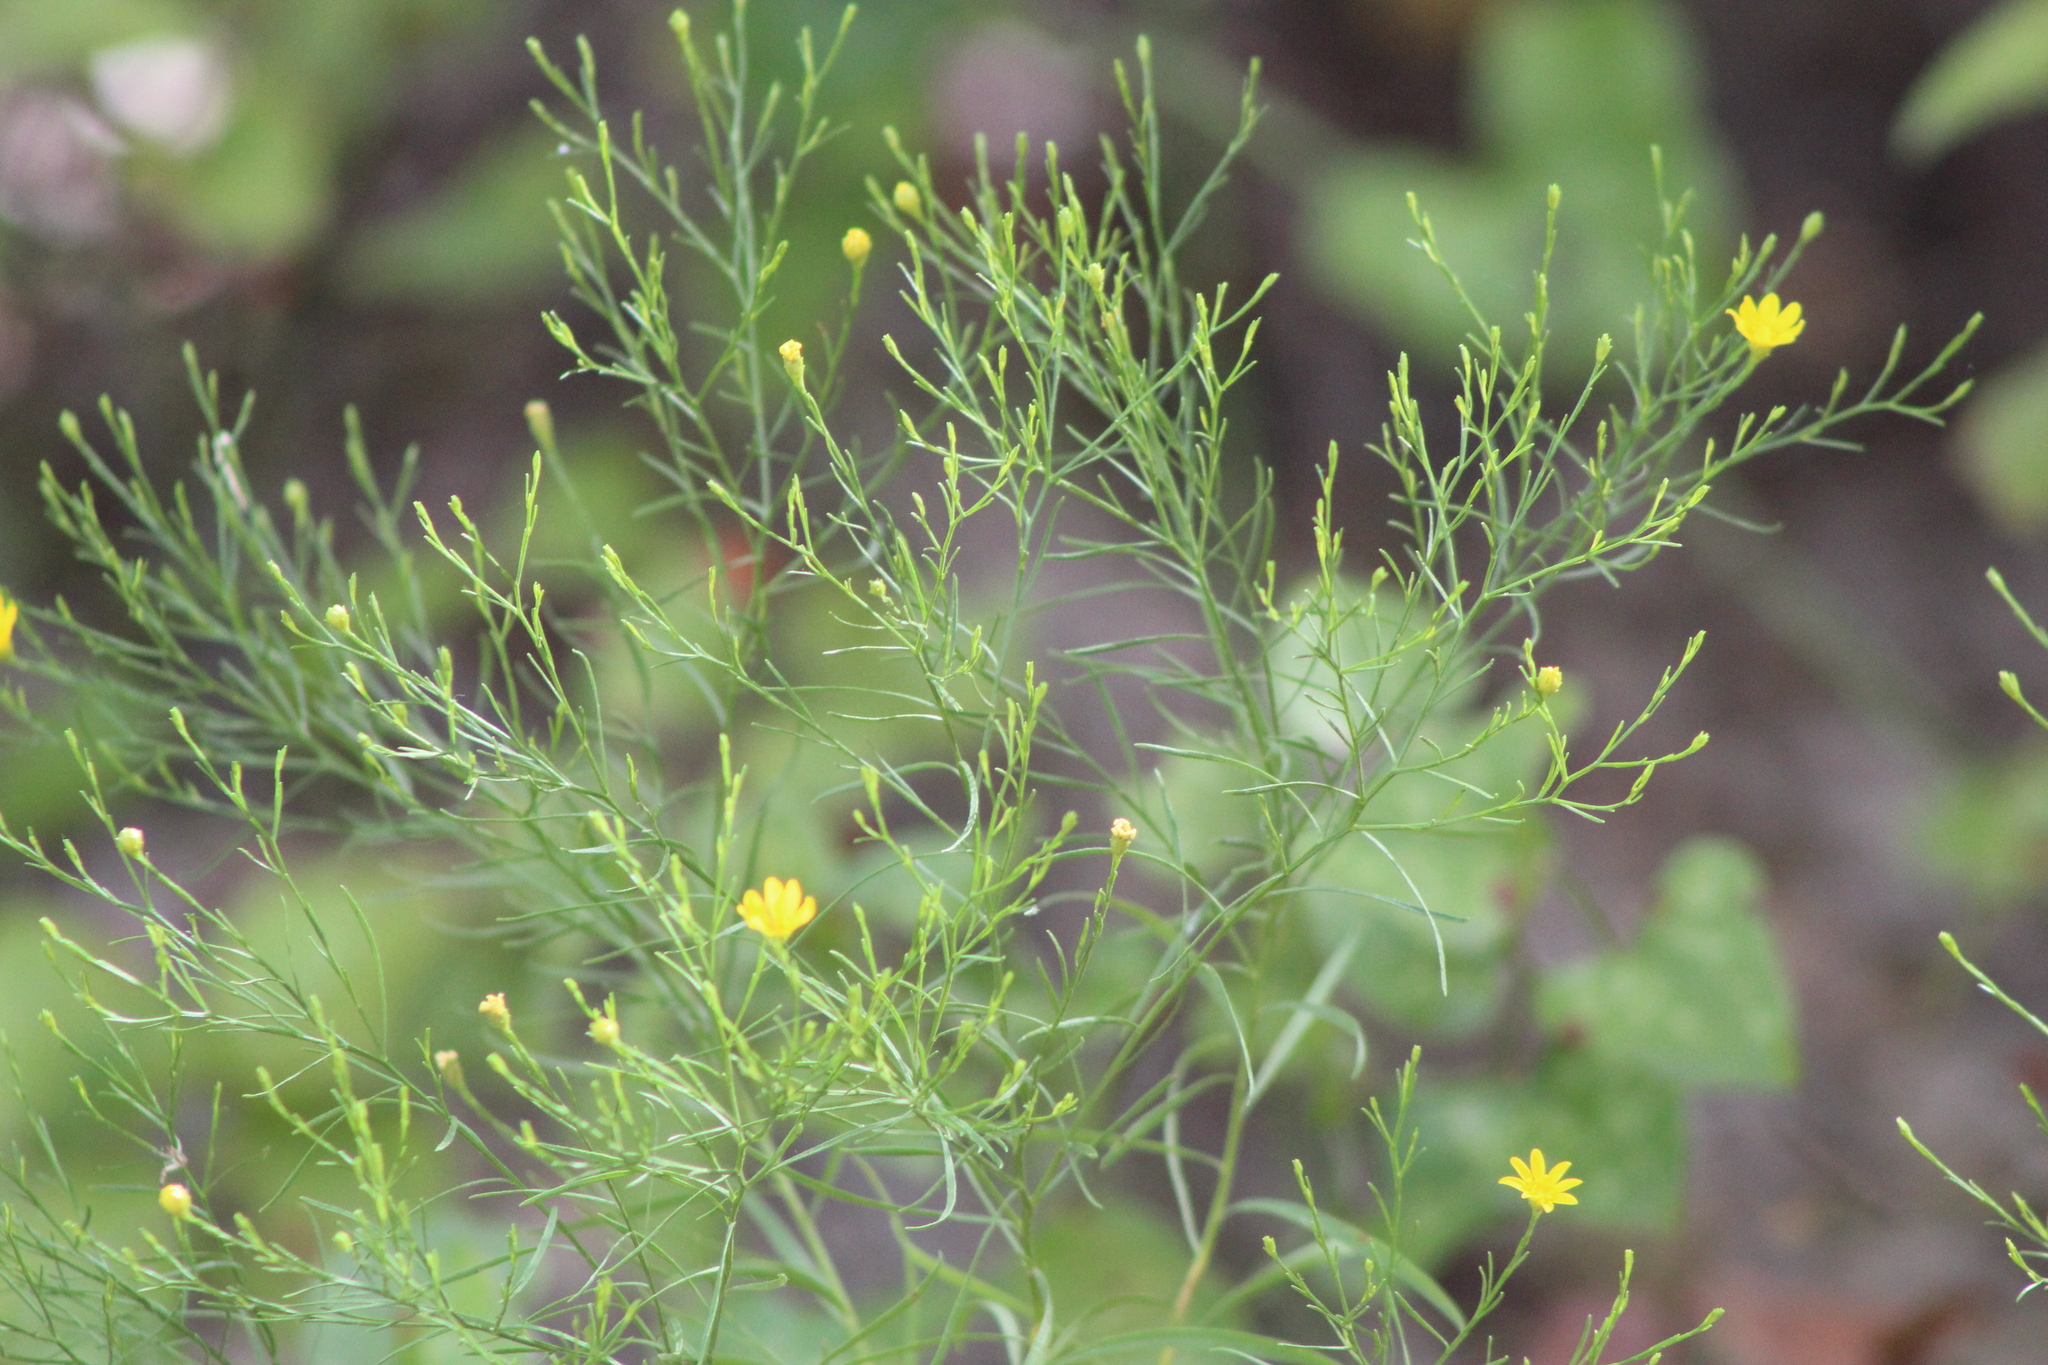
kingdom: Plantae
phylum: Tracheophyta
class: Magnoliopsida
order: Asterales
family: Asteraceae
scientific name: Asteraceae
